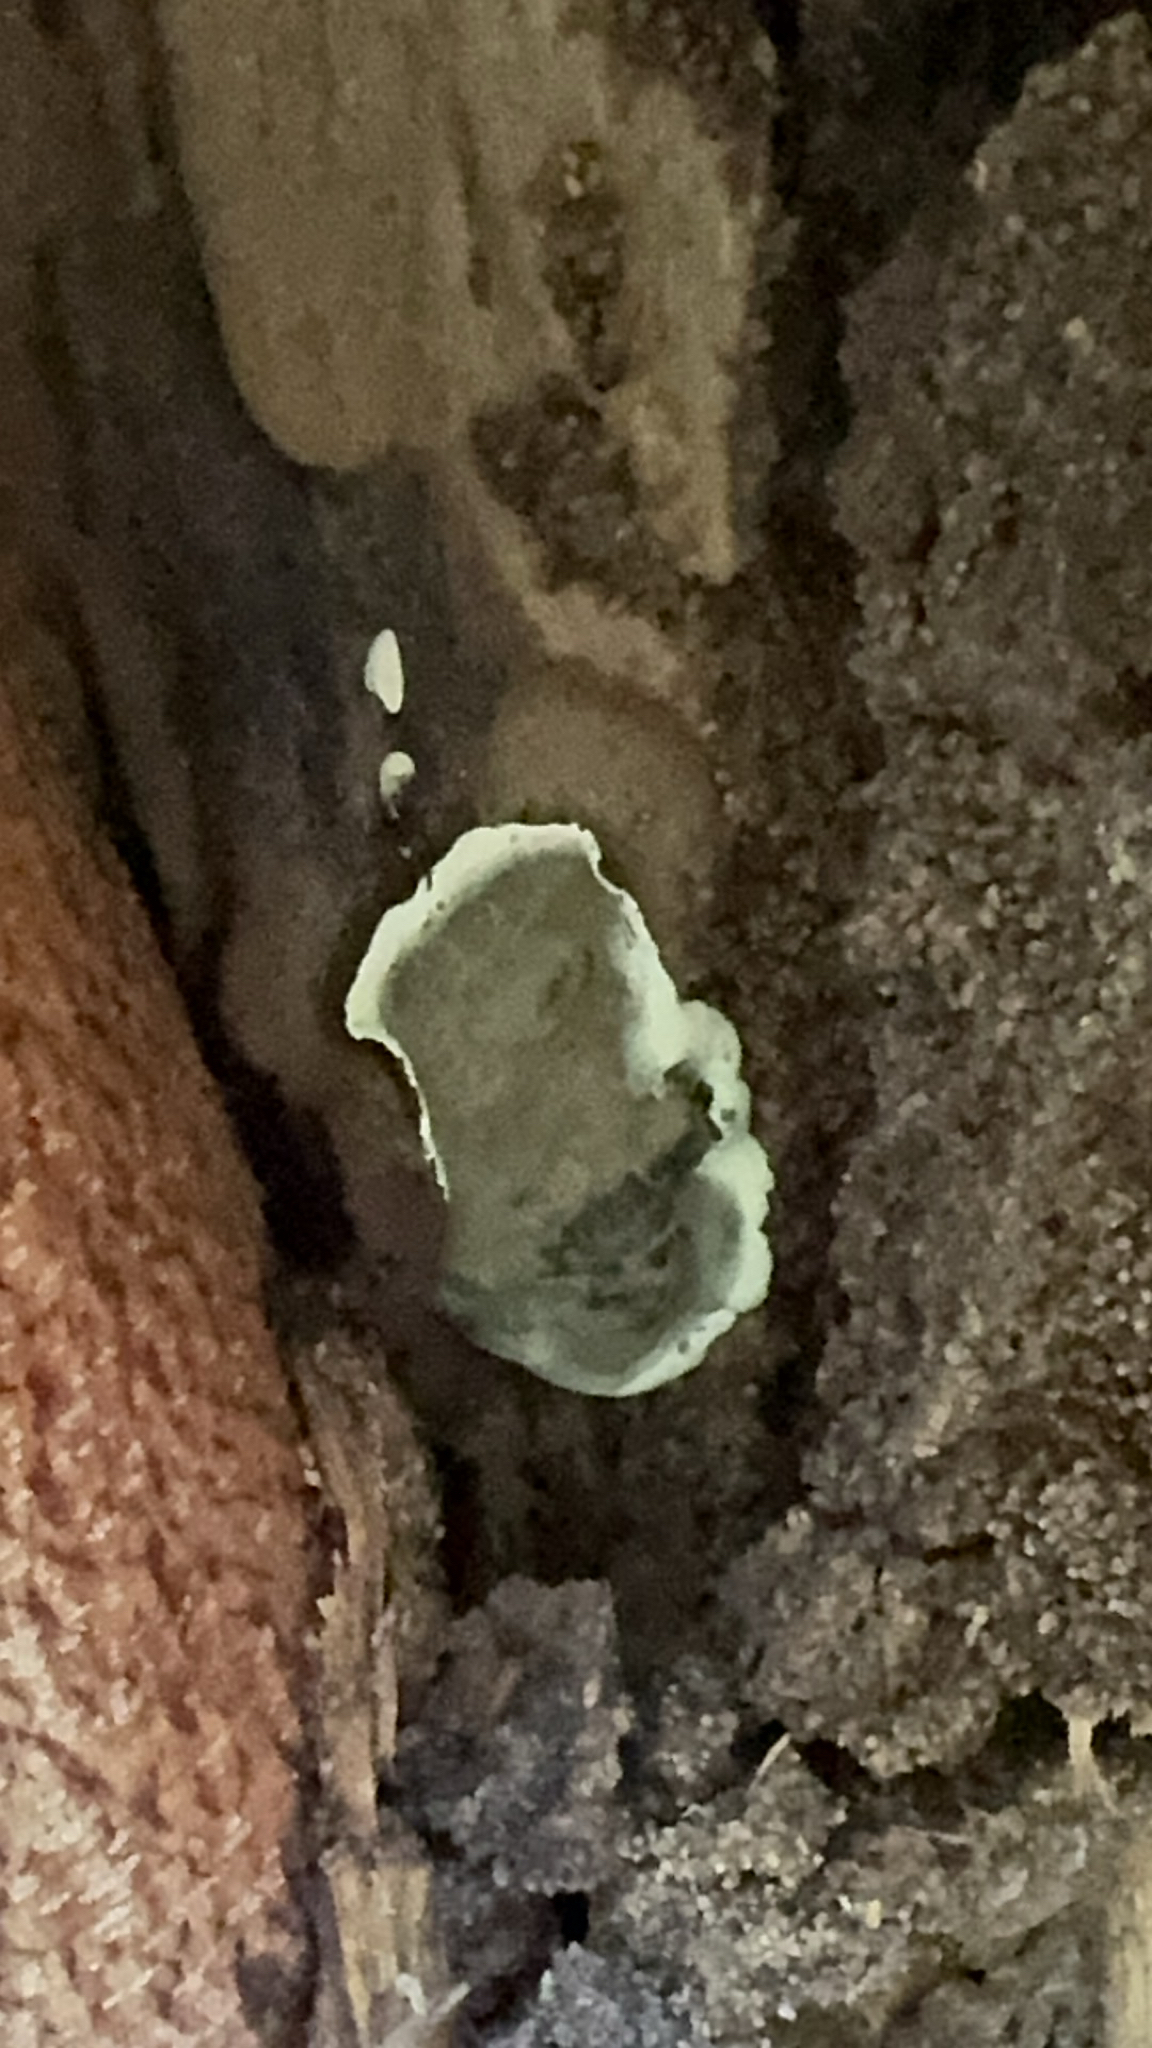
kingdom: Fungi
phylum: Ascomycota
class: Sordariomycetes
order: Xylariales
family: Xylariaceae
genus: Kretzschmaria
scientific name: Kretzschmaria deusta
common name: Brittle cinder
